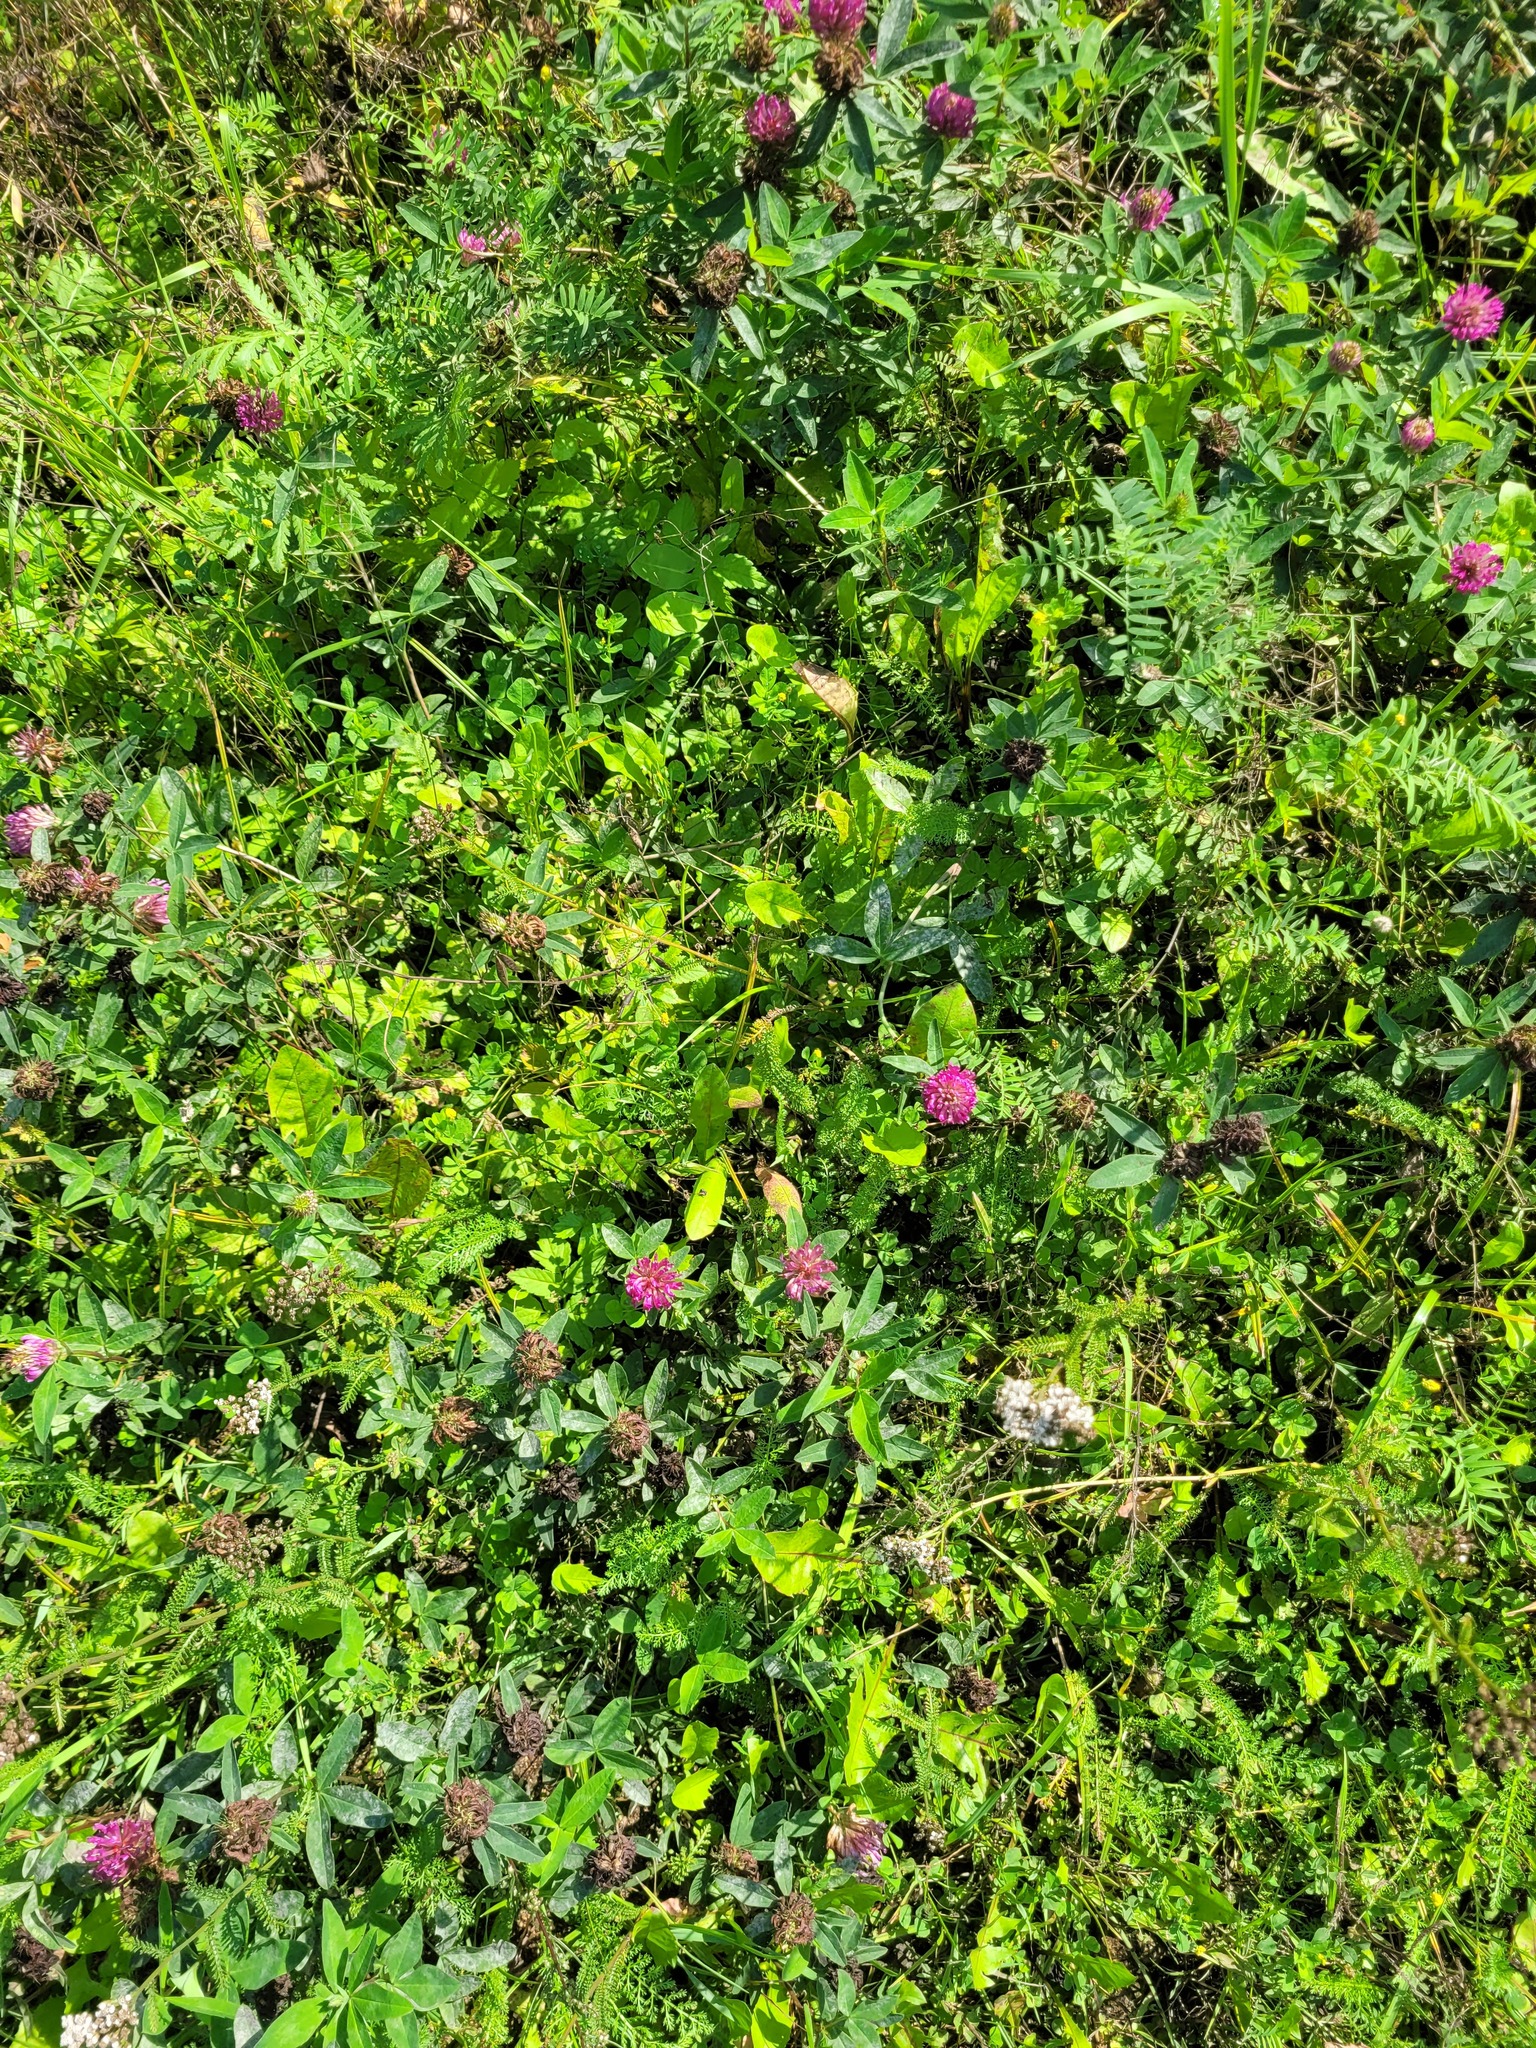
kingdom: Plantae
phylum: Tracheophyta
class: Magnoliopsida
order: Fabales
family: Fabaceae
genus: Trifolium
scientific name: Trifolium medium
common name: Zigzag clover
